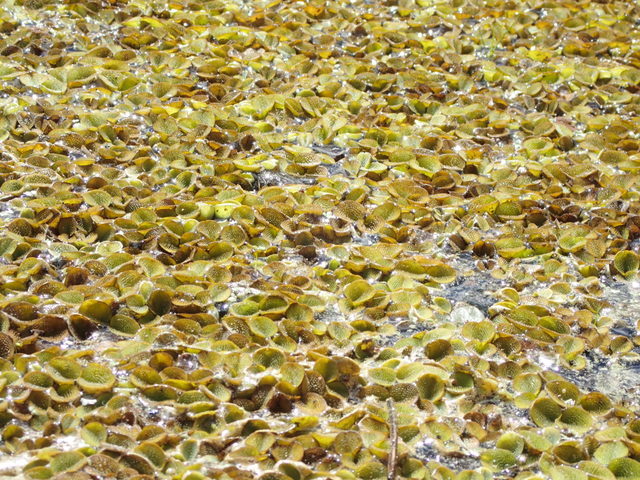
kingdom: Plantae
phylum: Tracheophyta
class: Polypodiopsida
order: Salviniales
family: Salviniaceae
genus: Salvinia
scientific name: Salvinia minima
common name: Water spangles
